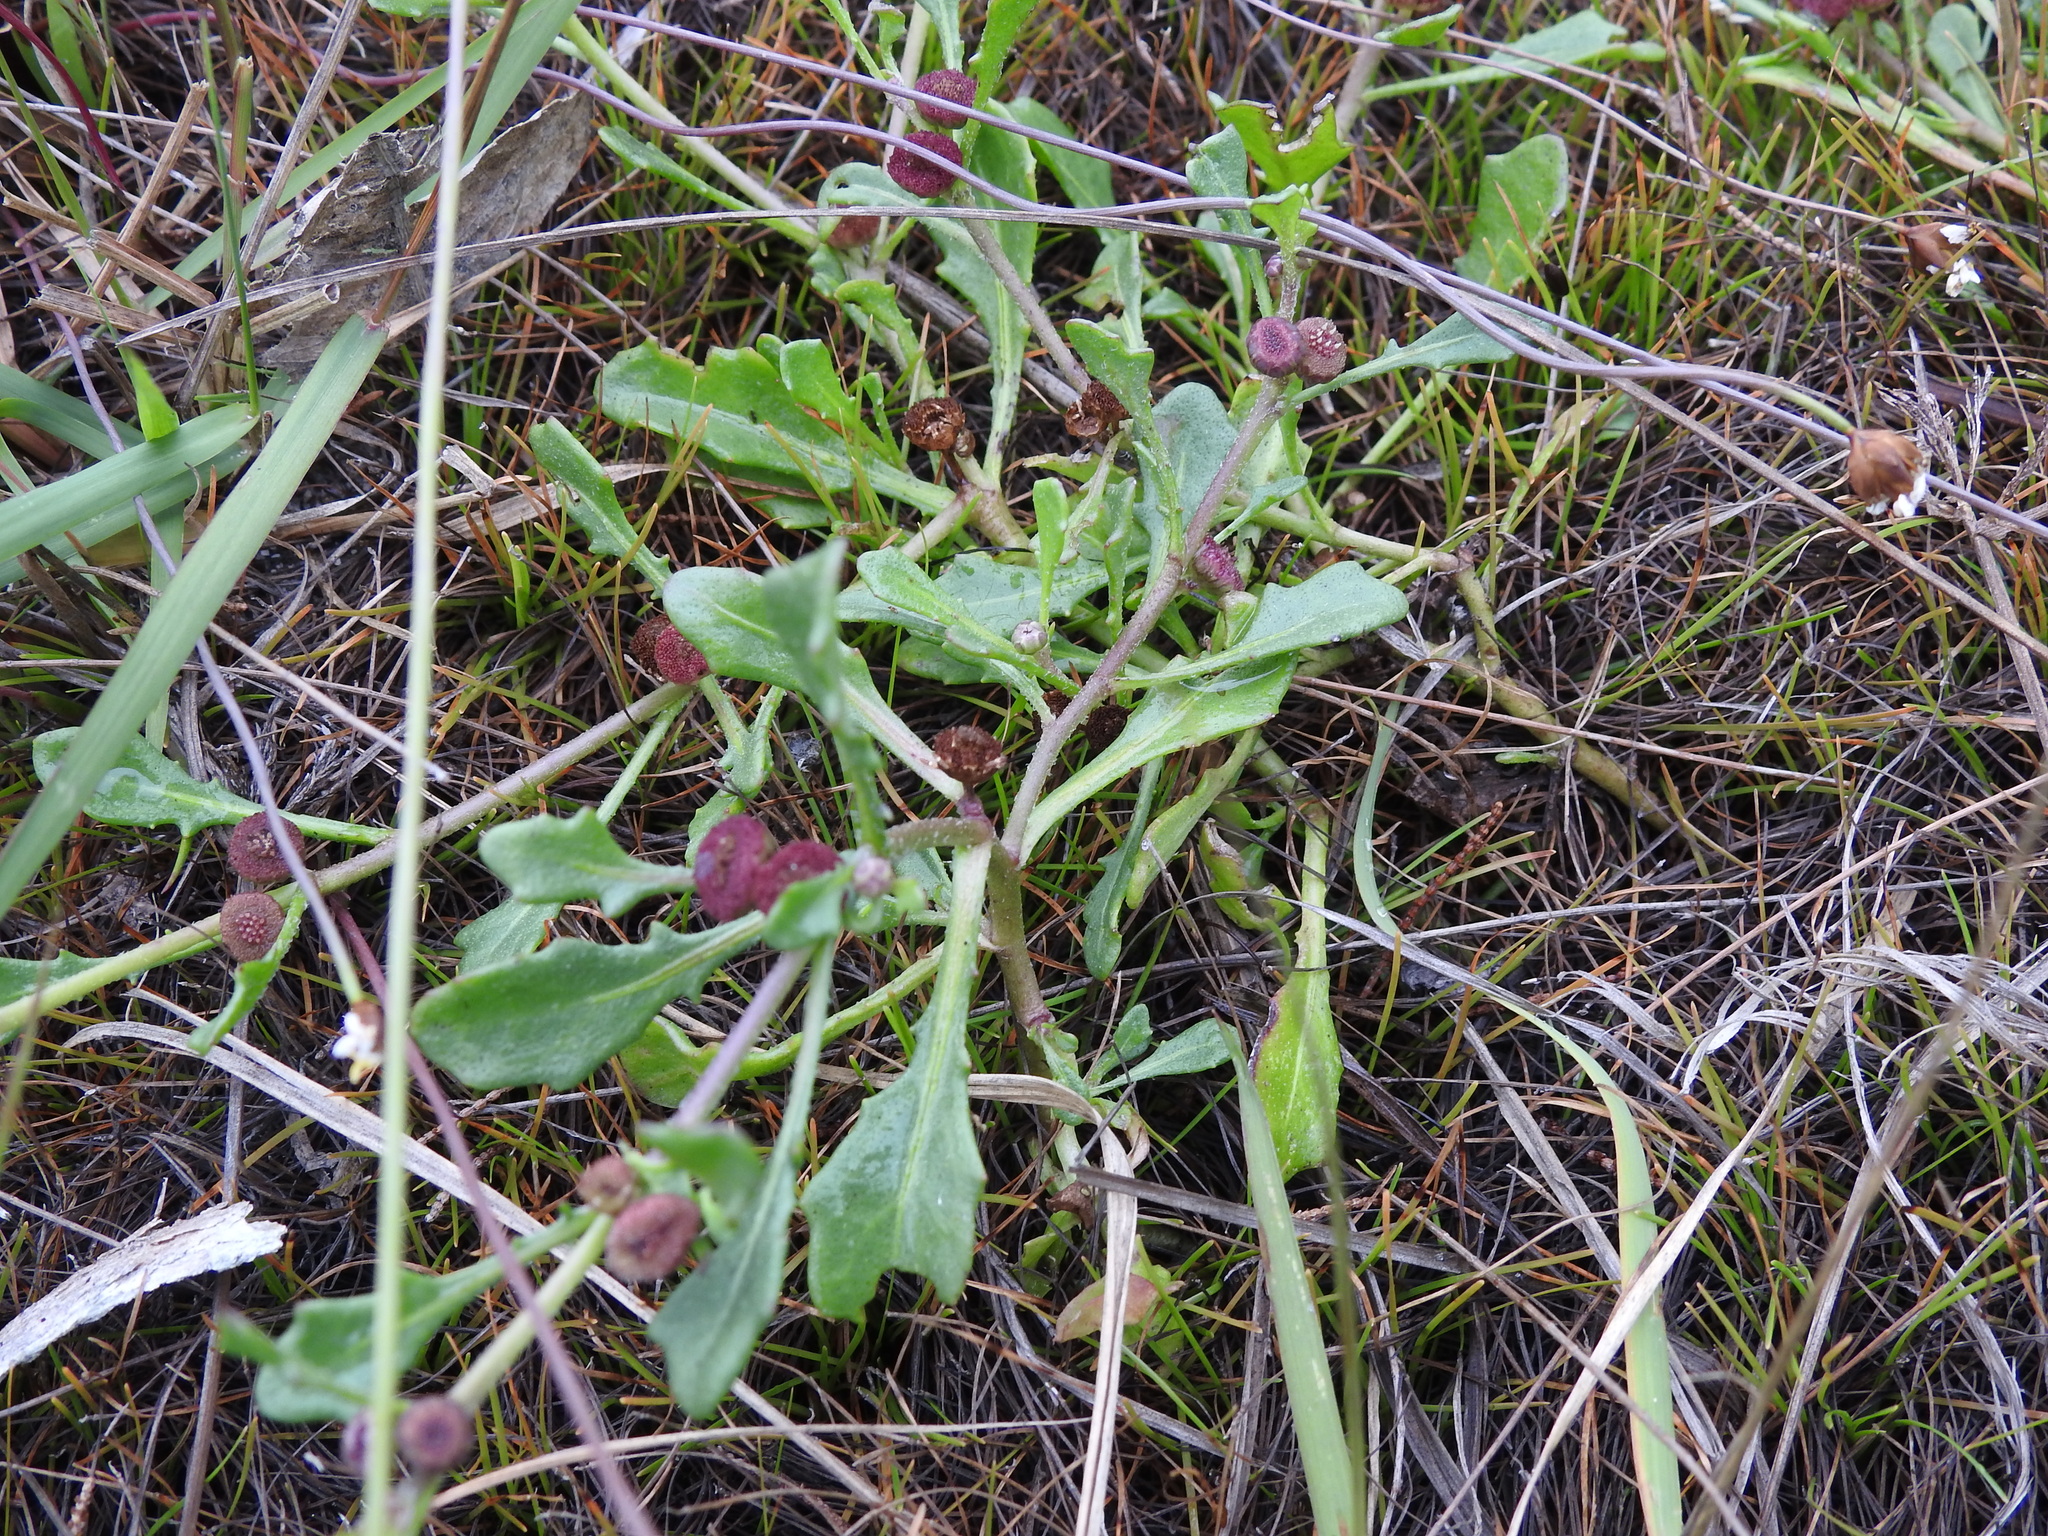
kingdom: Plantae
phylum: Tracheophyta
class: Magnoliopsida
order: Asterales
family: Asteraceae
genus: Sphaeromorphaea
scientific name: Sphaeromorphaea australis
